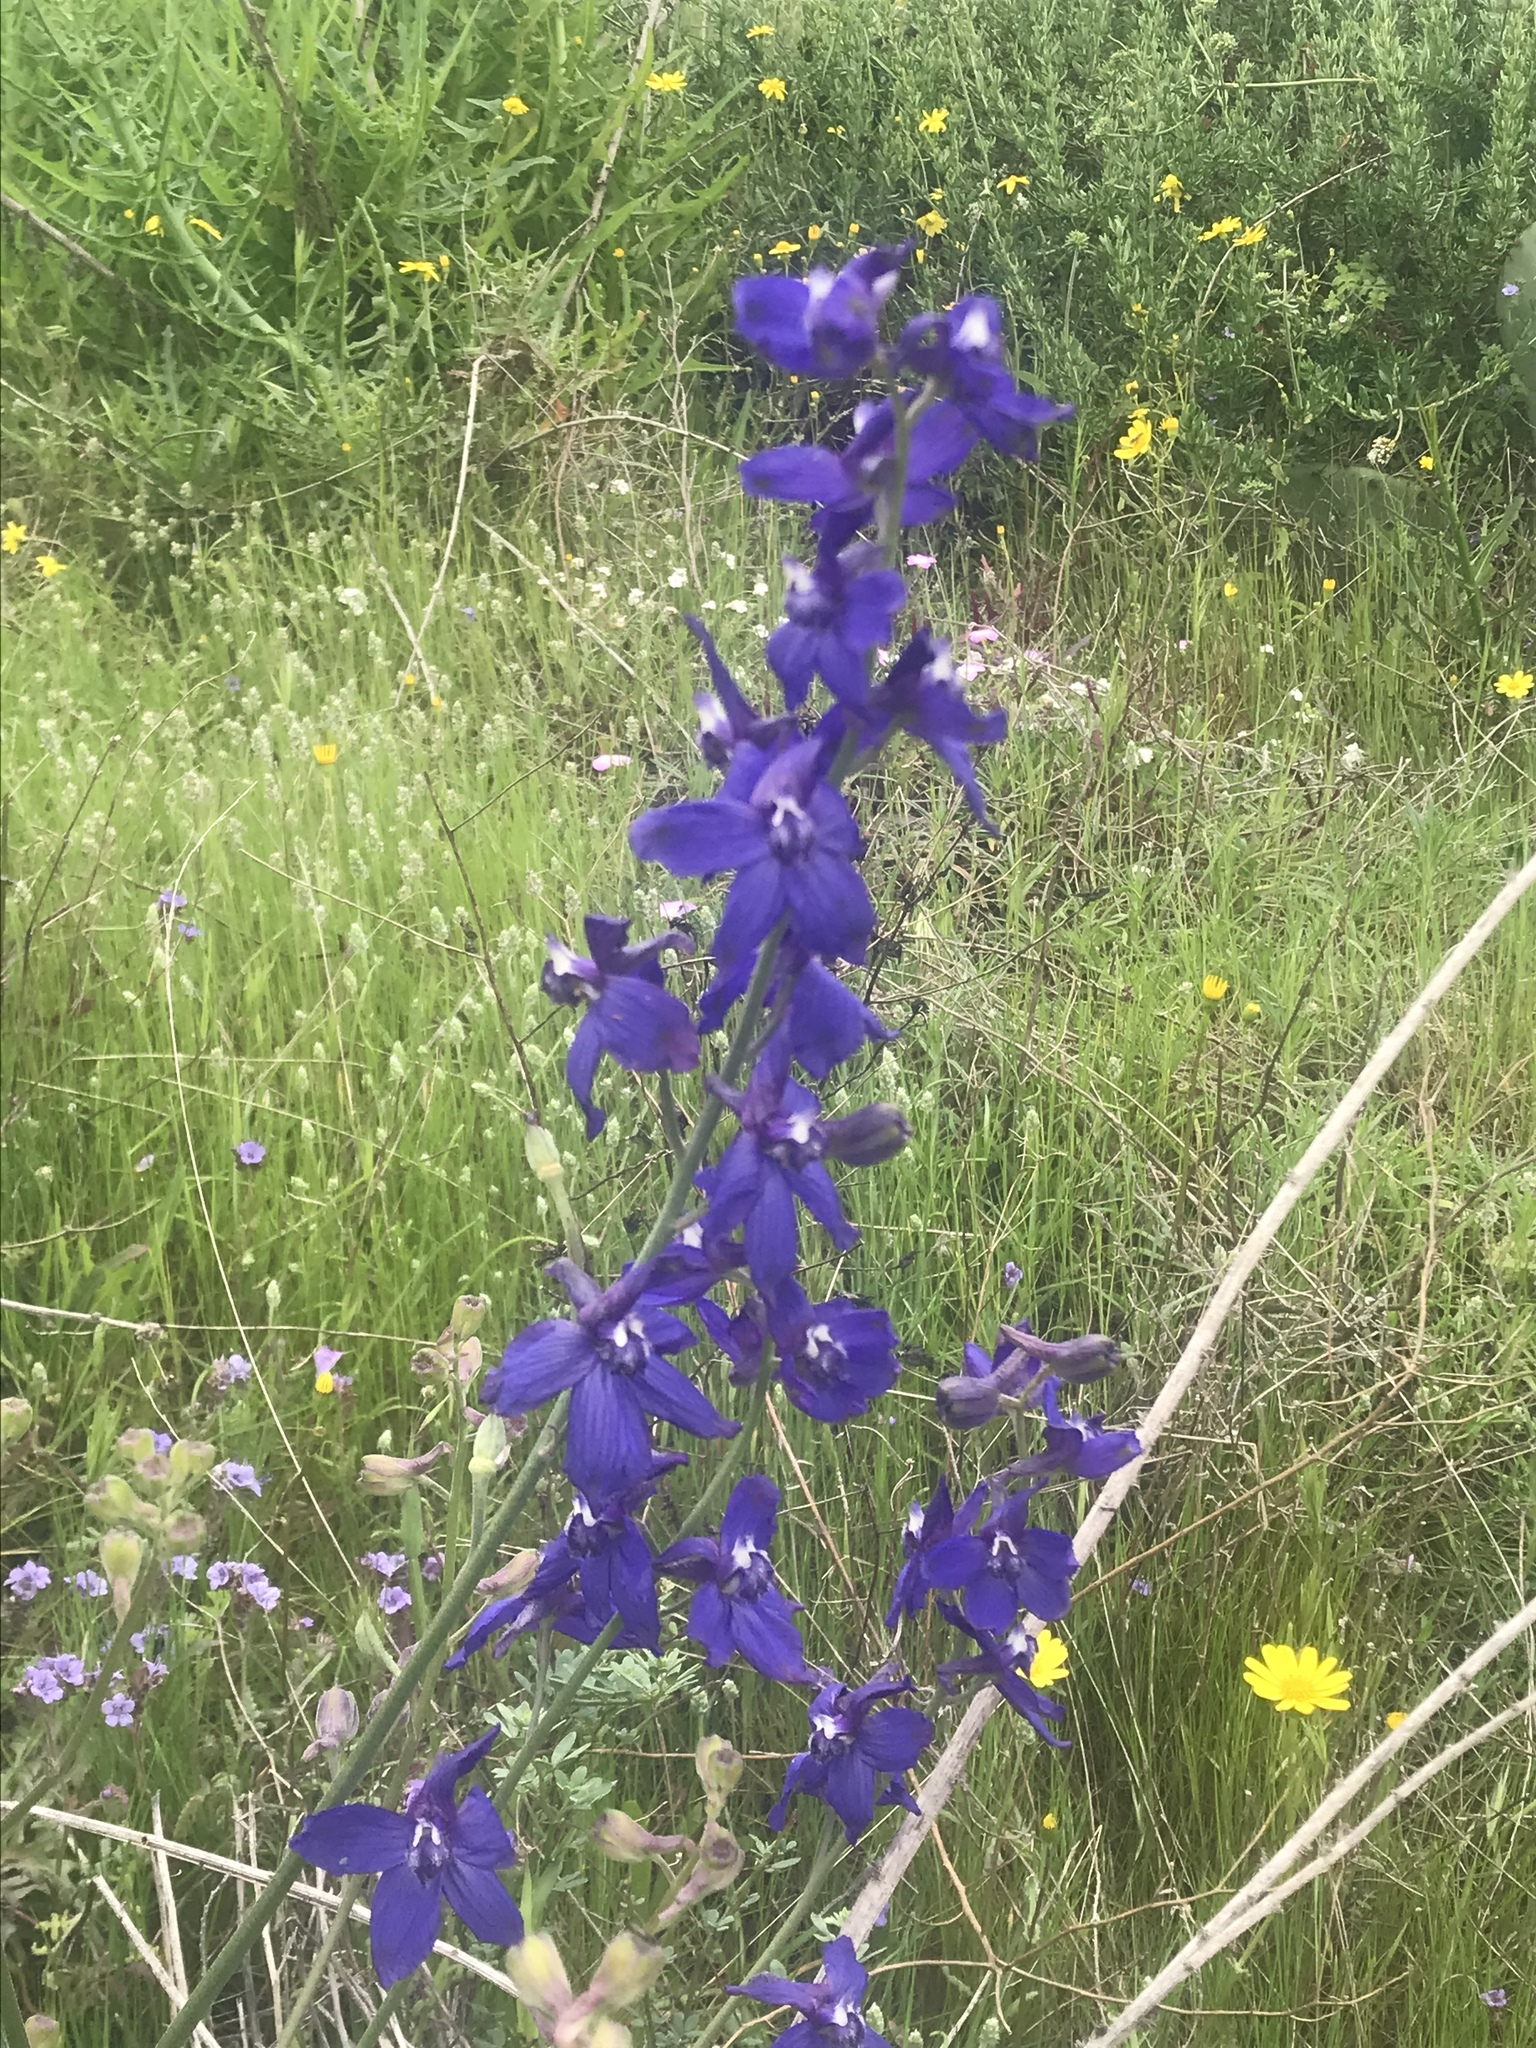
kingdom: Plantae
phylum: Tracheophyta
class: Magnoliopsida
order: Ranunculales
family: Ranunculaceae
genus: Delphinium
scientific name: Delphinium parryi
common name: Parry's larkspur
